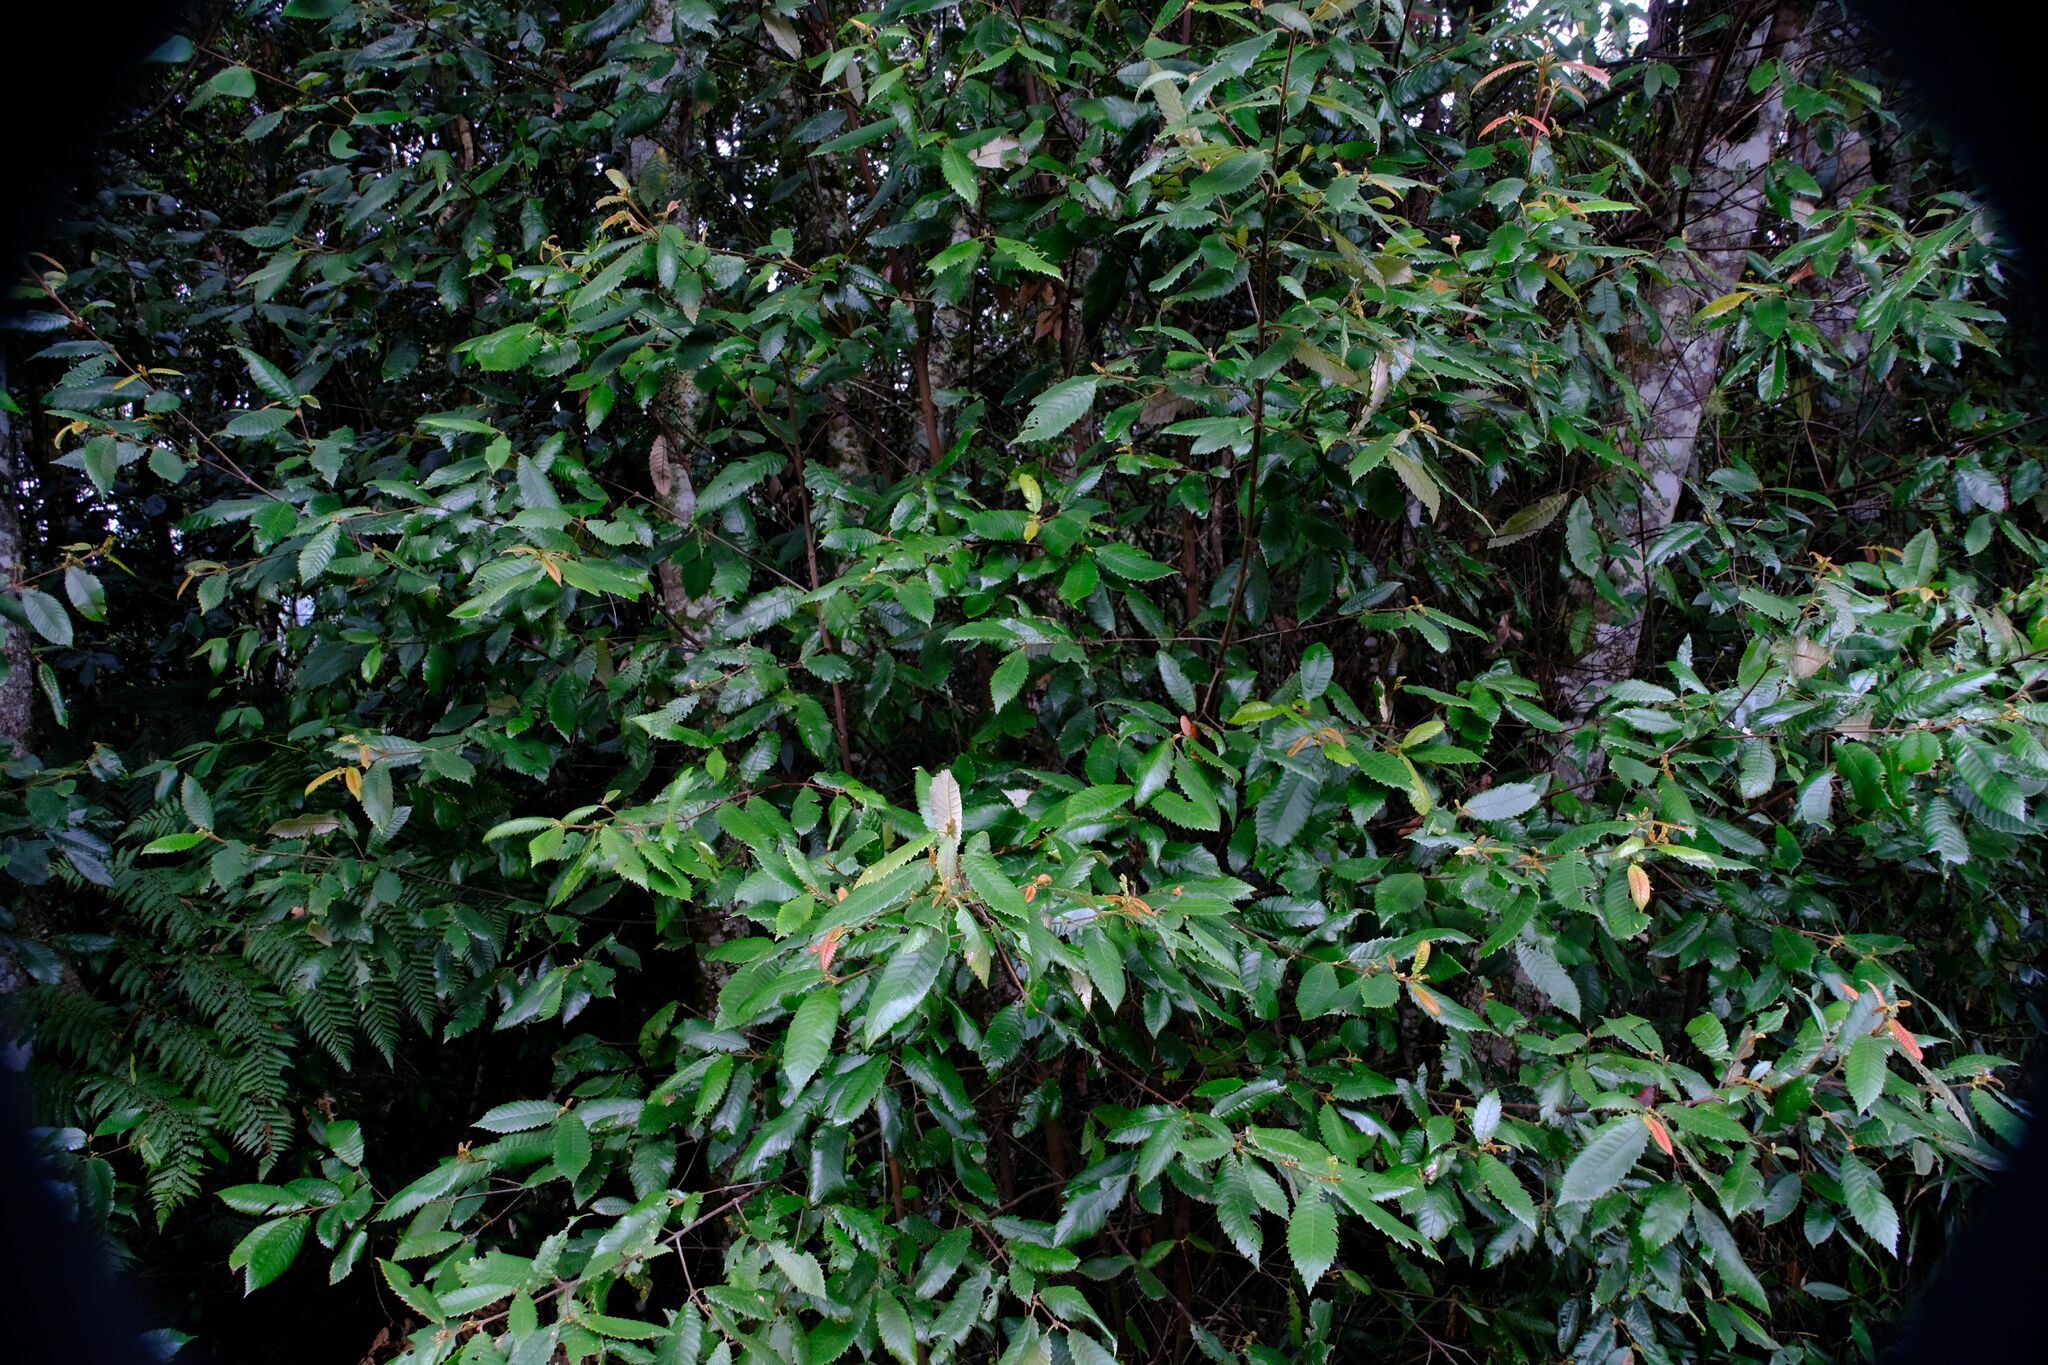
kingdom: Plantae
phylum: Tracheophyta
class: Magnoliopsida
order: Oxalidales
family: Cunoniaceae
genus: Callicoma
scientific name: Callicoma serratifolia
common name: Black wattle
